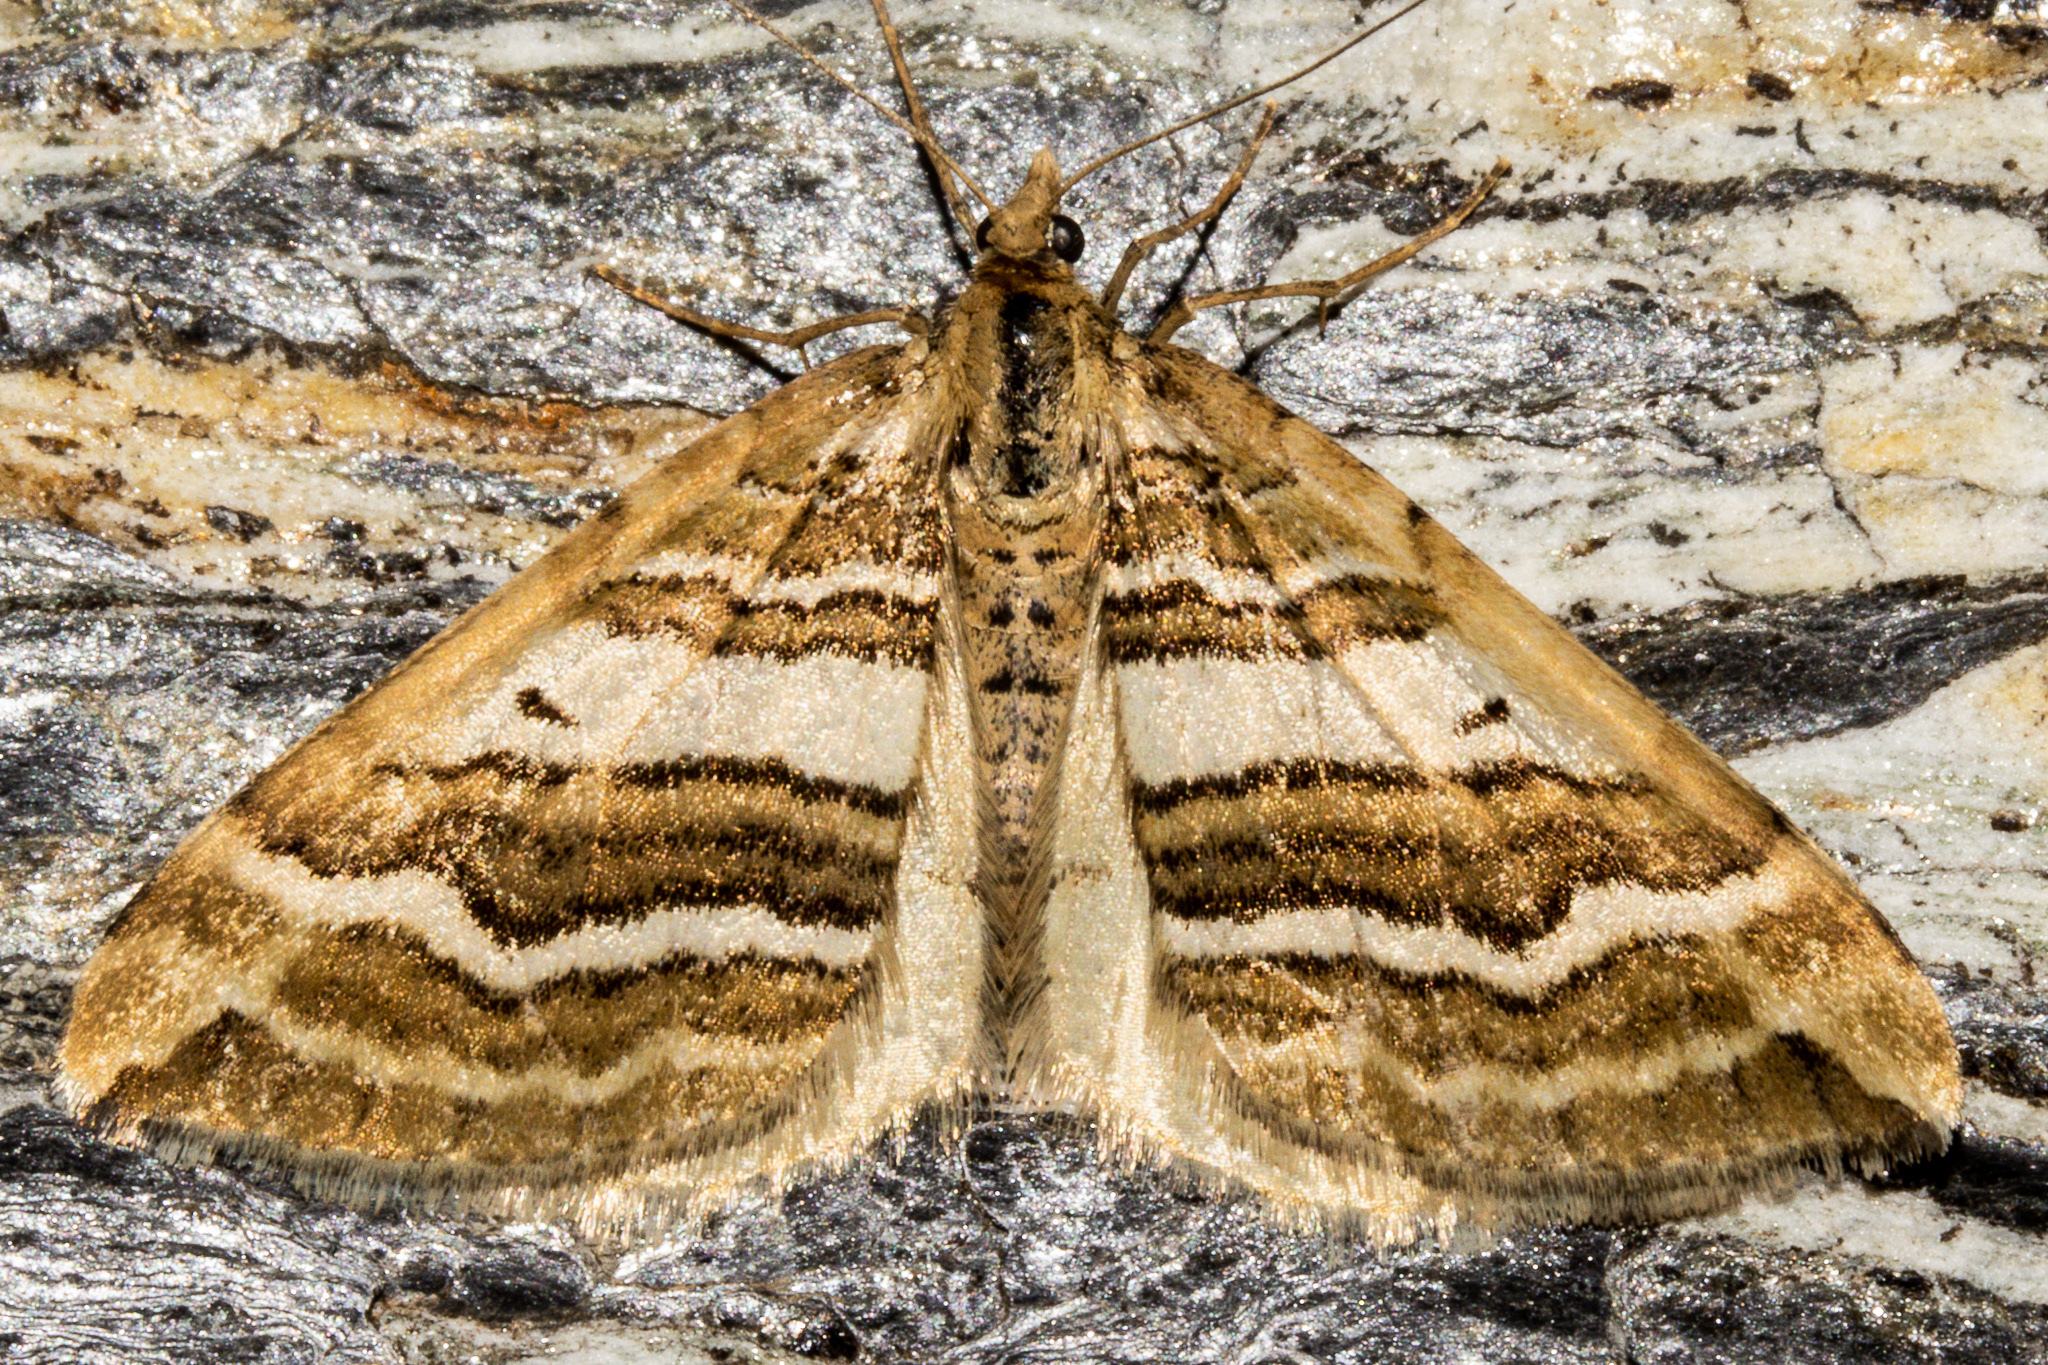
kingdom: Animalia
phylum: Arthropoda
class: Insecta
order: Lepidoptera
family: Geometridae
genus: Asaphodes
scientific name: Asaphodes cataphracta
